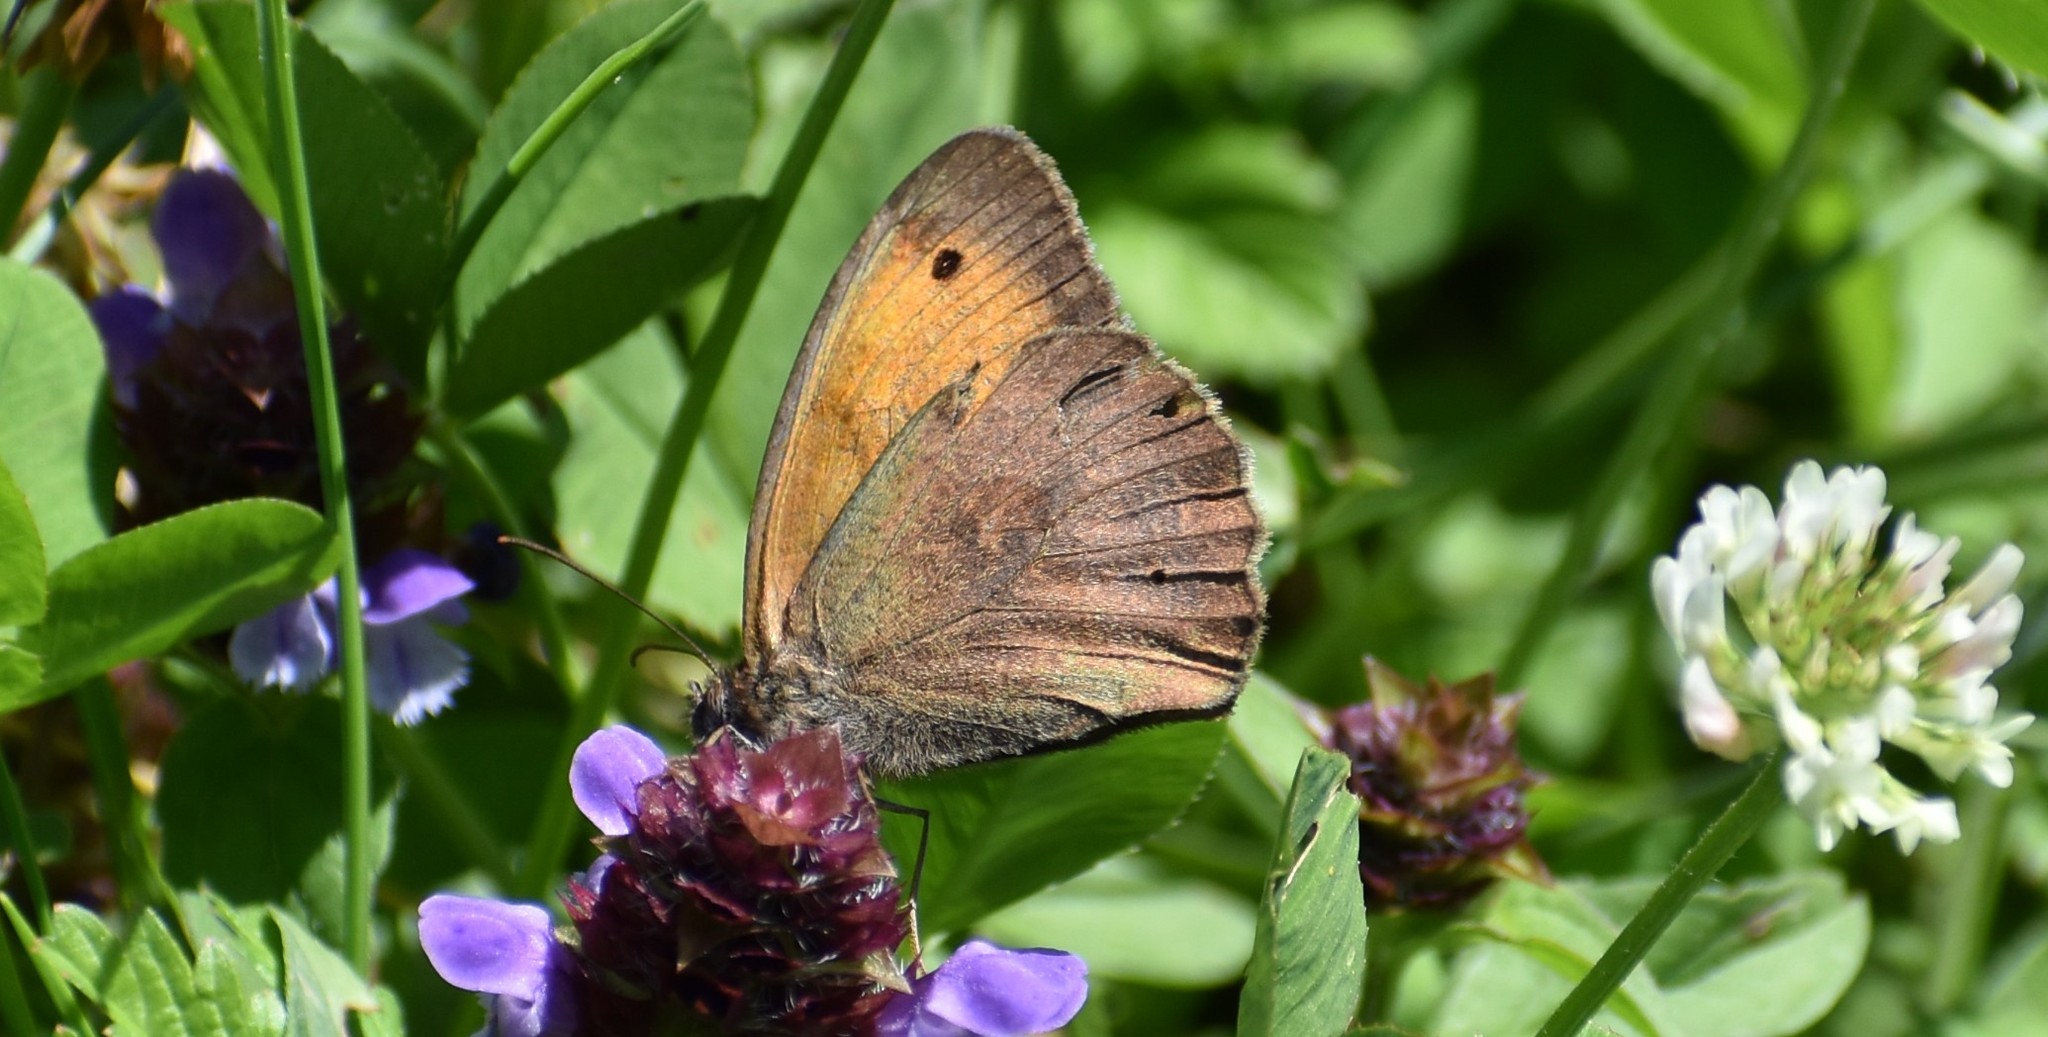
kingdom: Animalia
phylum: Arthropoda
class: Insecta
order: Lepidoptera
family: Nymphalidae
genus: Maniola
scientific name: Maniola jurtina
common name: Meadow brown
